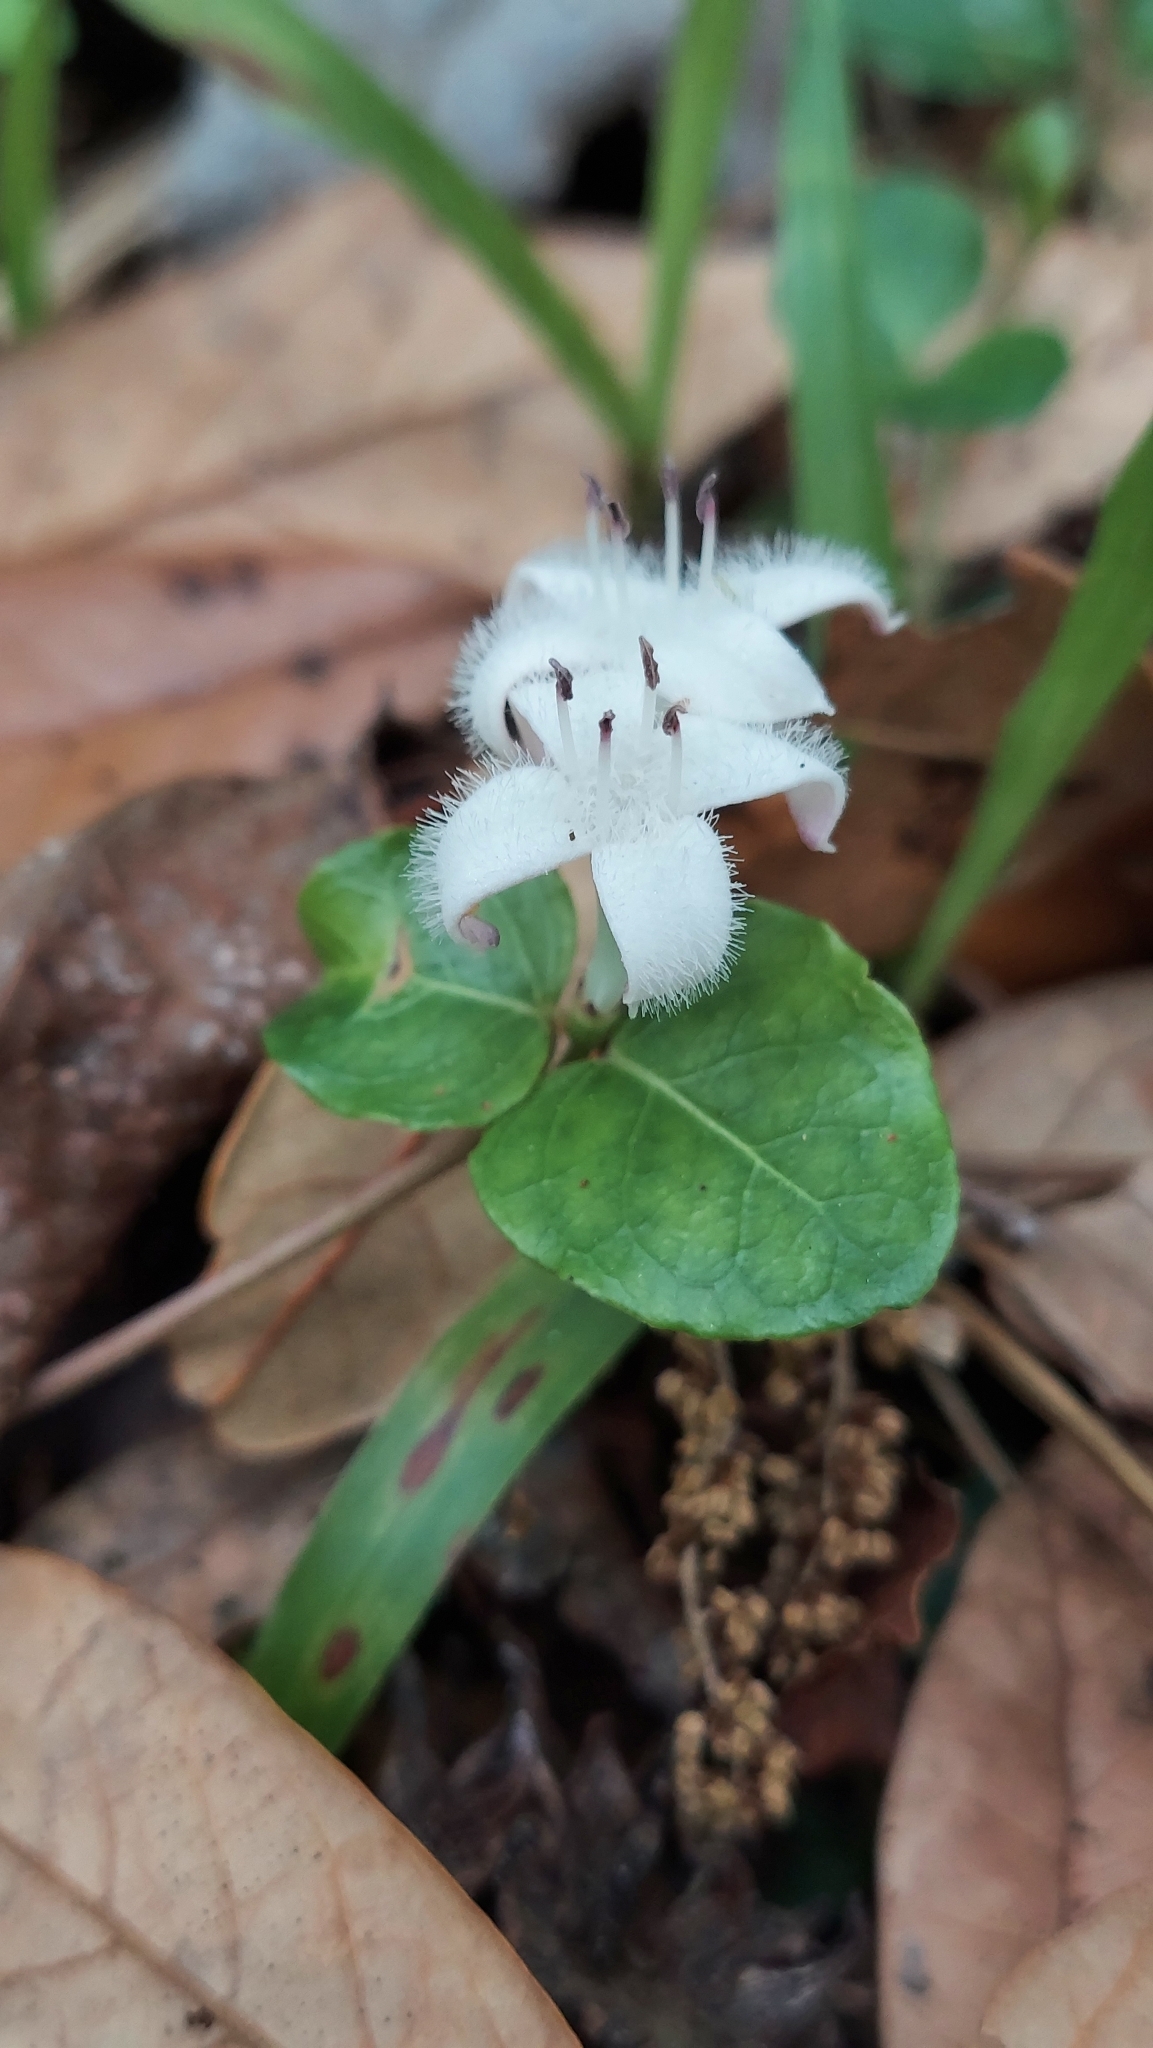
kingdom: Plantae
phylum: Tracheophyta
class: Magnoliopsida
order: Gentianales
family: Rubiaceae
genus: Mitchella
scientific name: Mitchella repens
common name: Partridge-berry
